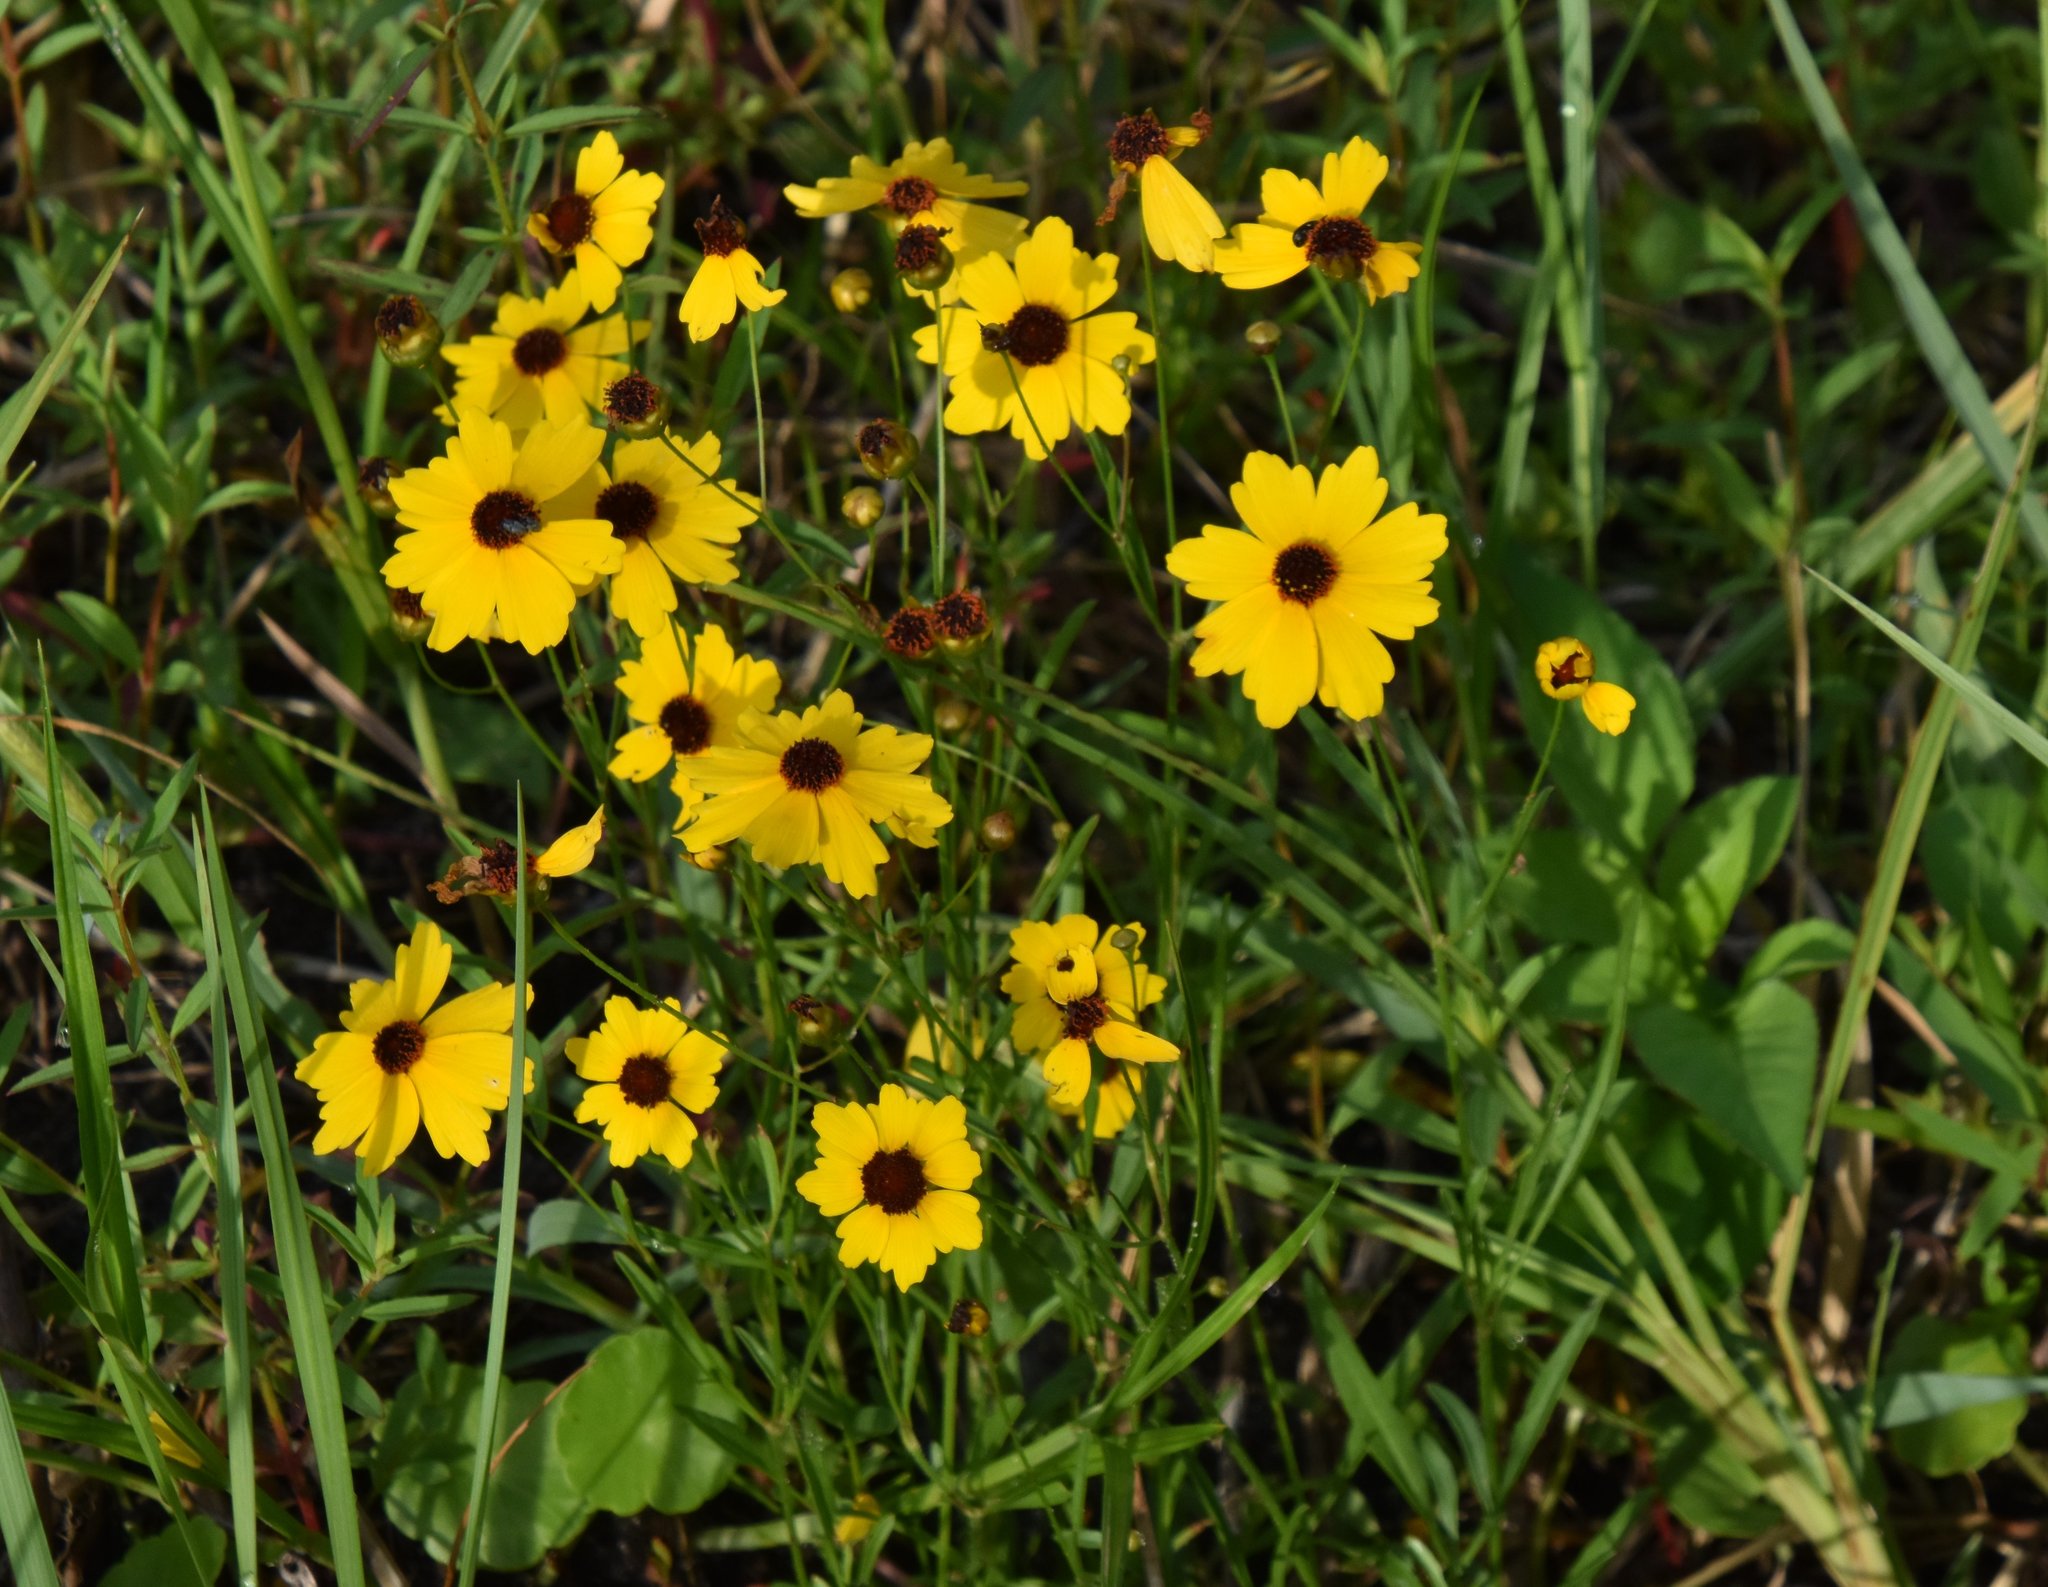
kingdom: Plantae
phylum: Tracheophyta
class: Magnoliopsida
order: Asterales
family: Asteraceae
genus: Coreopsis
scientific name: Coreopsis leavenworthii
